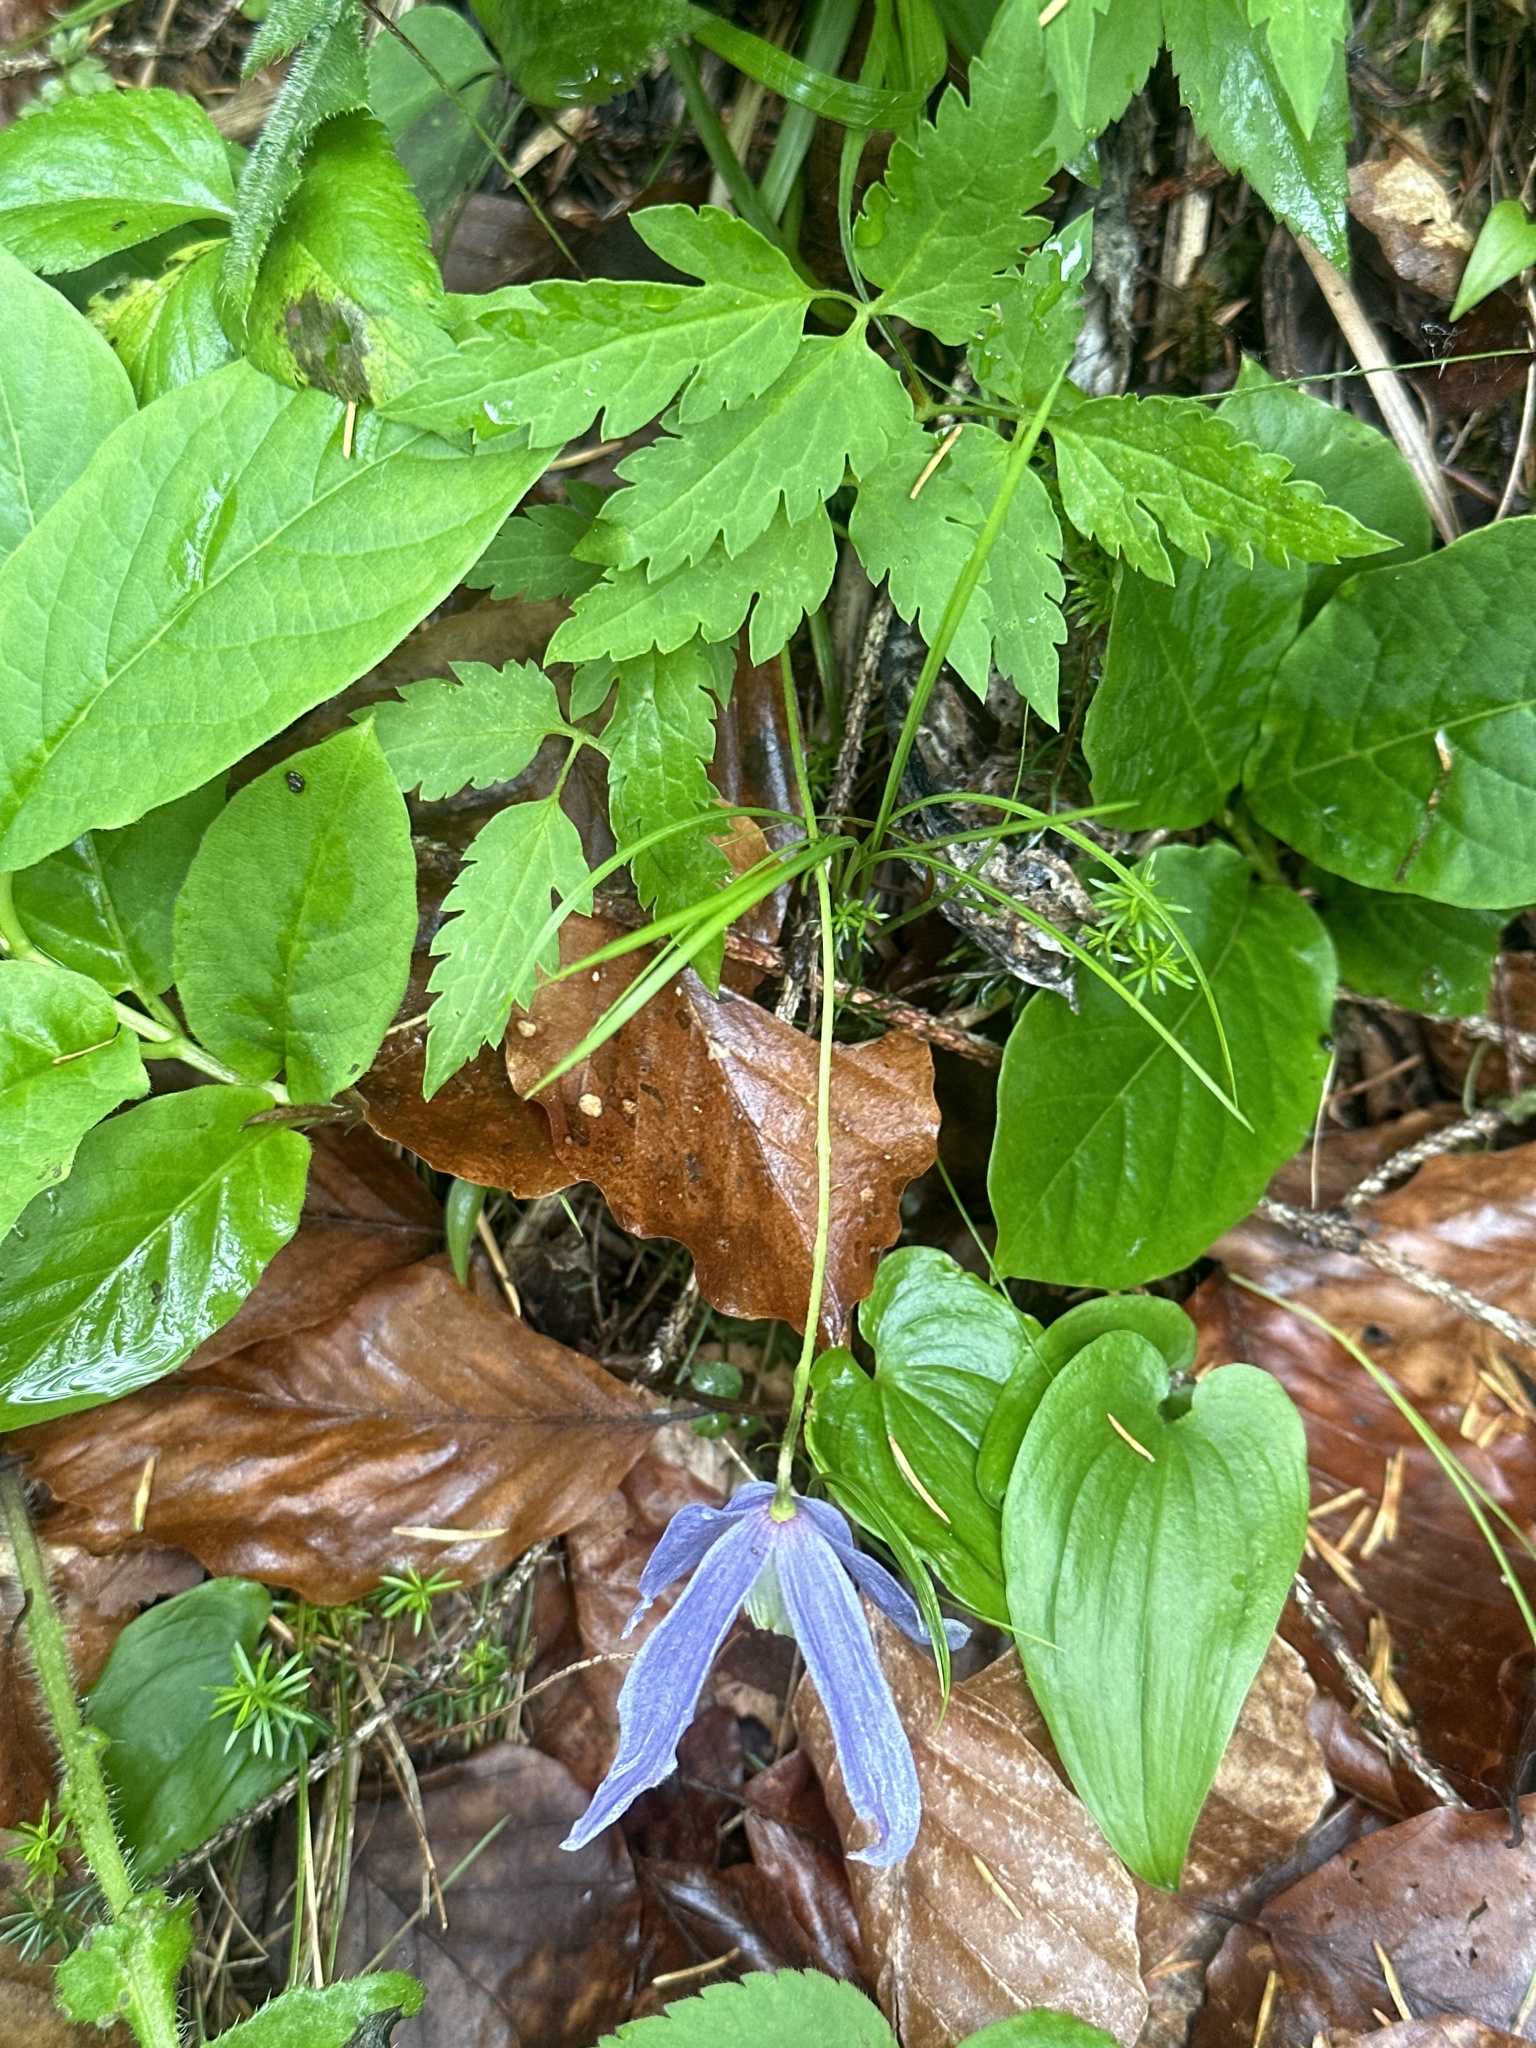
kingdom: Plantae
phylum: Tracheophyta
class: Magnoliopsida
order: Ranunculales
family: Ranunculaceae
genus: Clematis
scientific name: Clematis alpina
